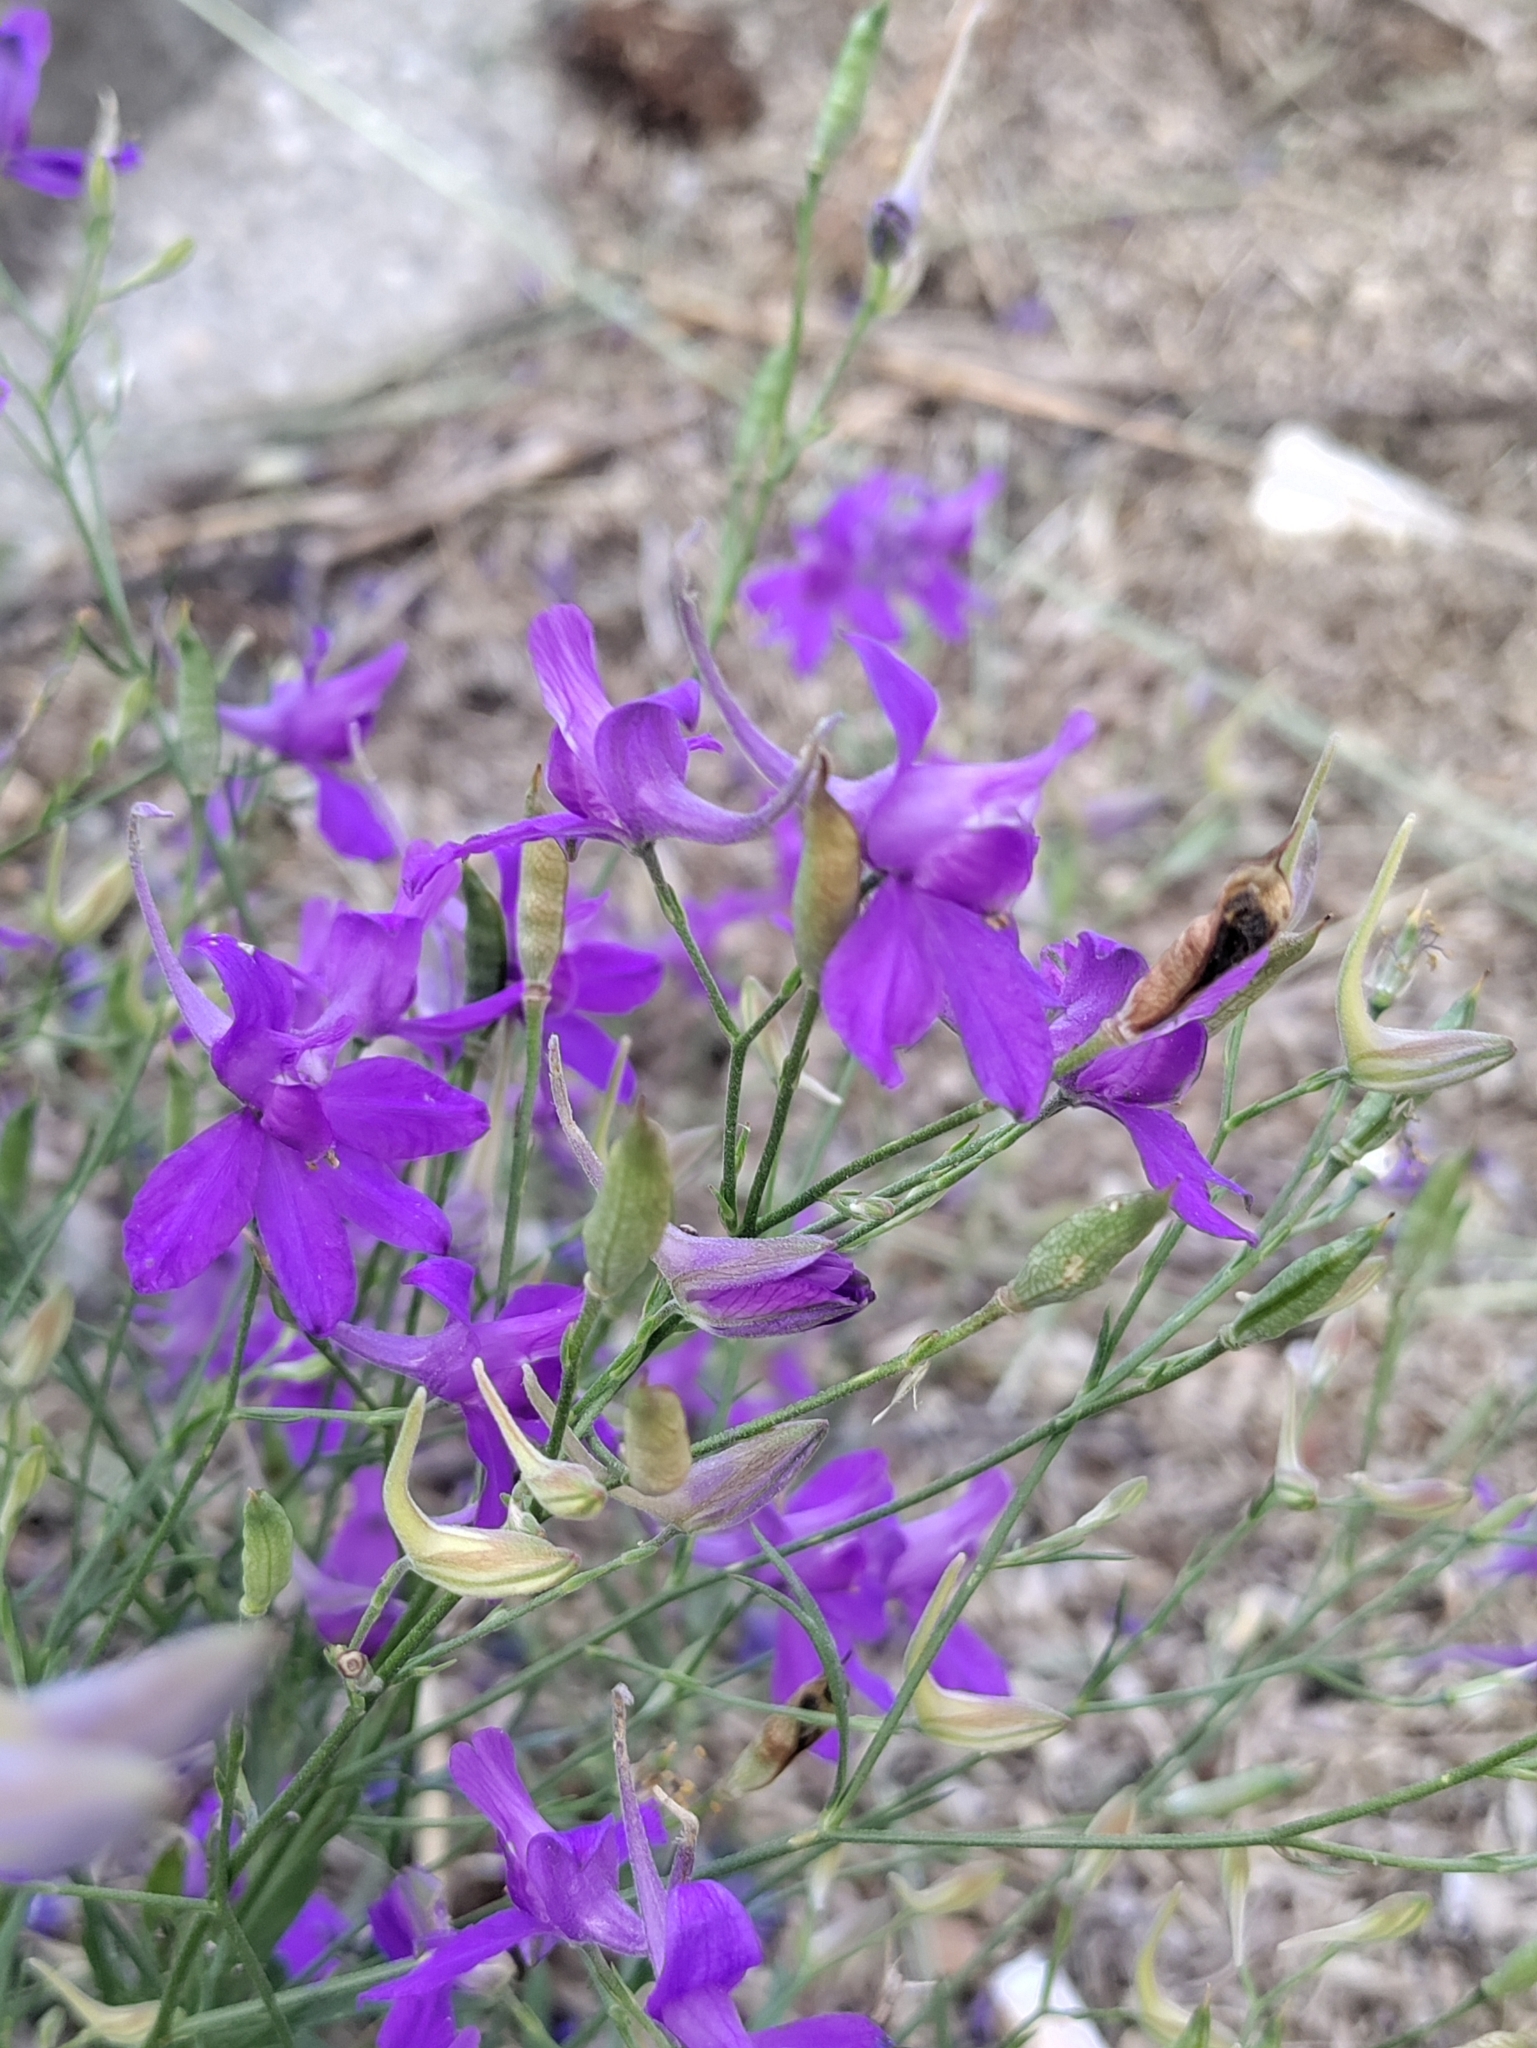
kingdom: Plantae
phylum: Tracheophyta
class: Magnoliopsida
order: Ranunculales
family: Ranunculaceae
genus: Delphinium
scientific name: Delphinium consolida
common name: Branching larkspur
